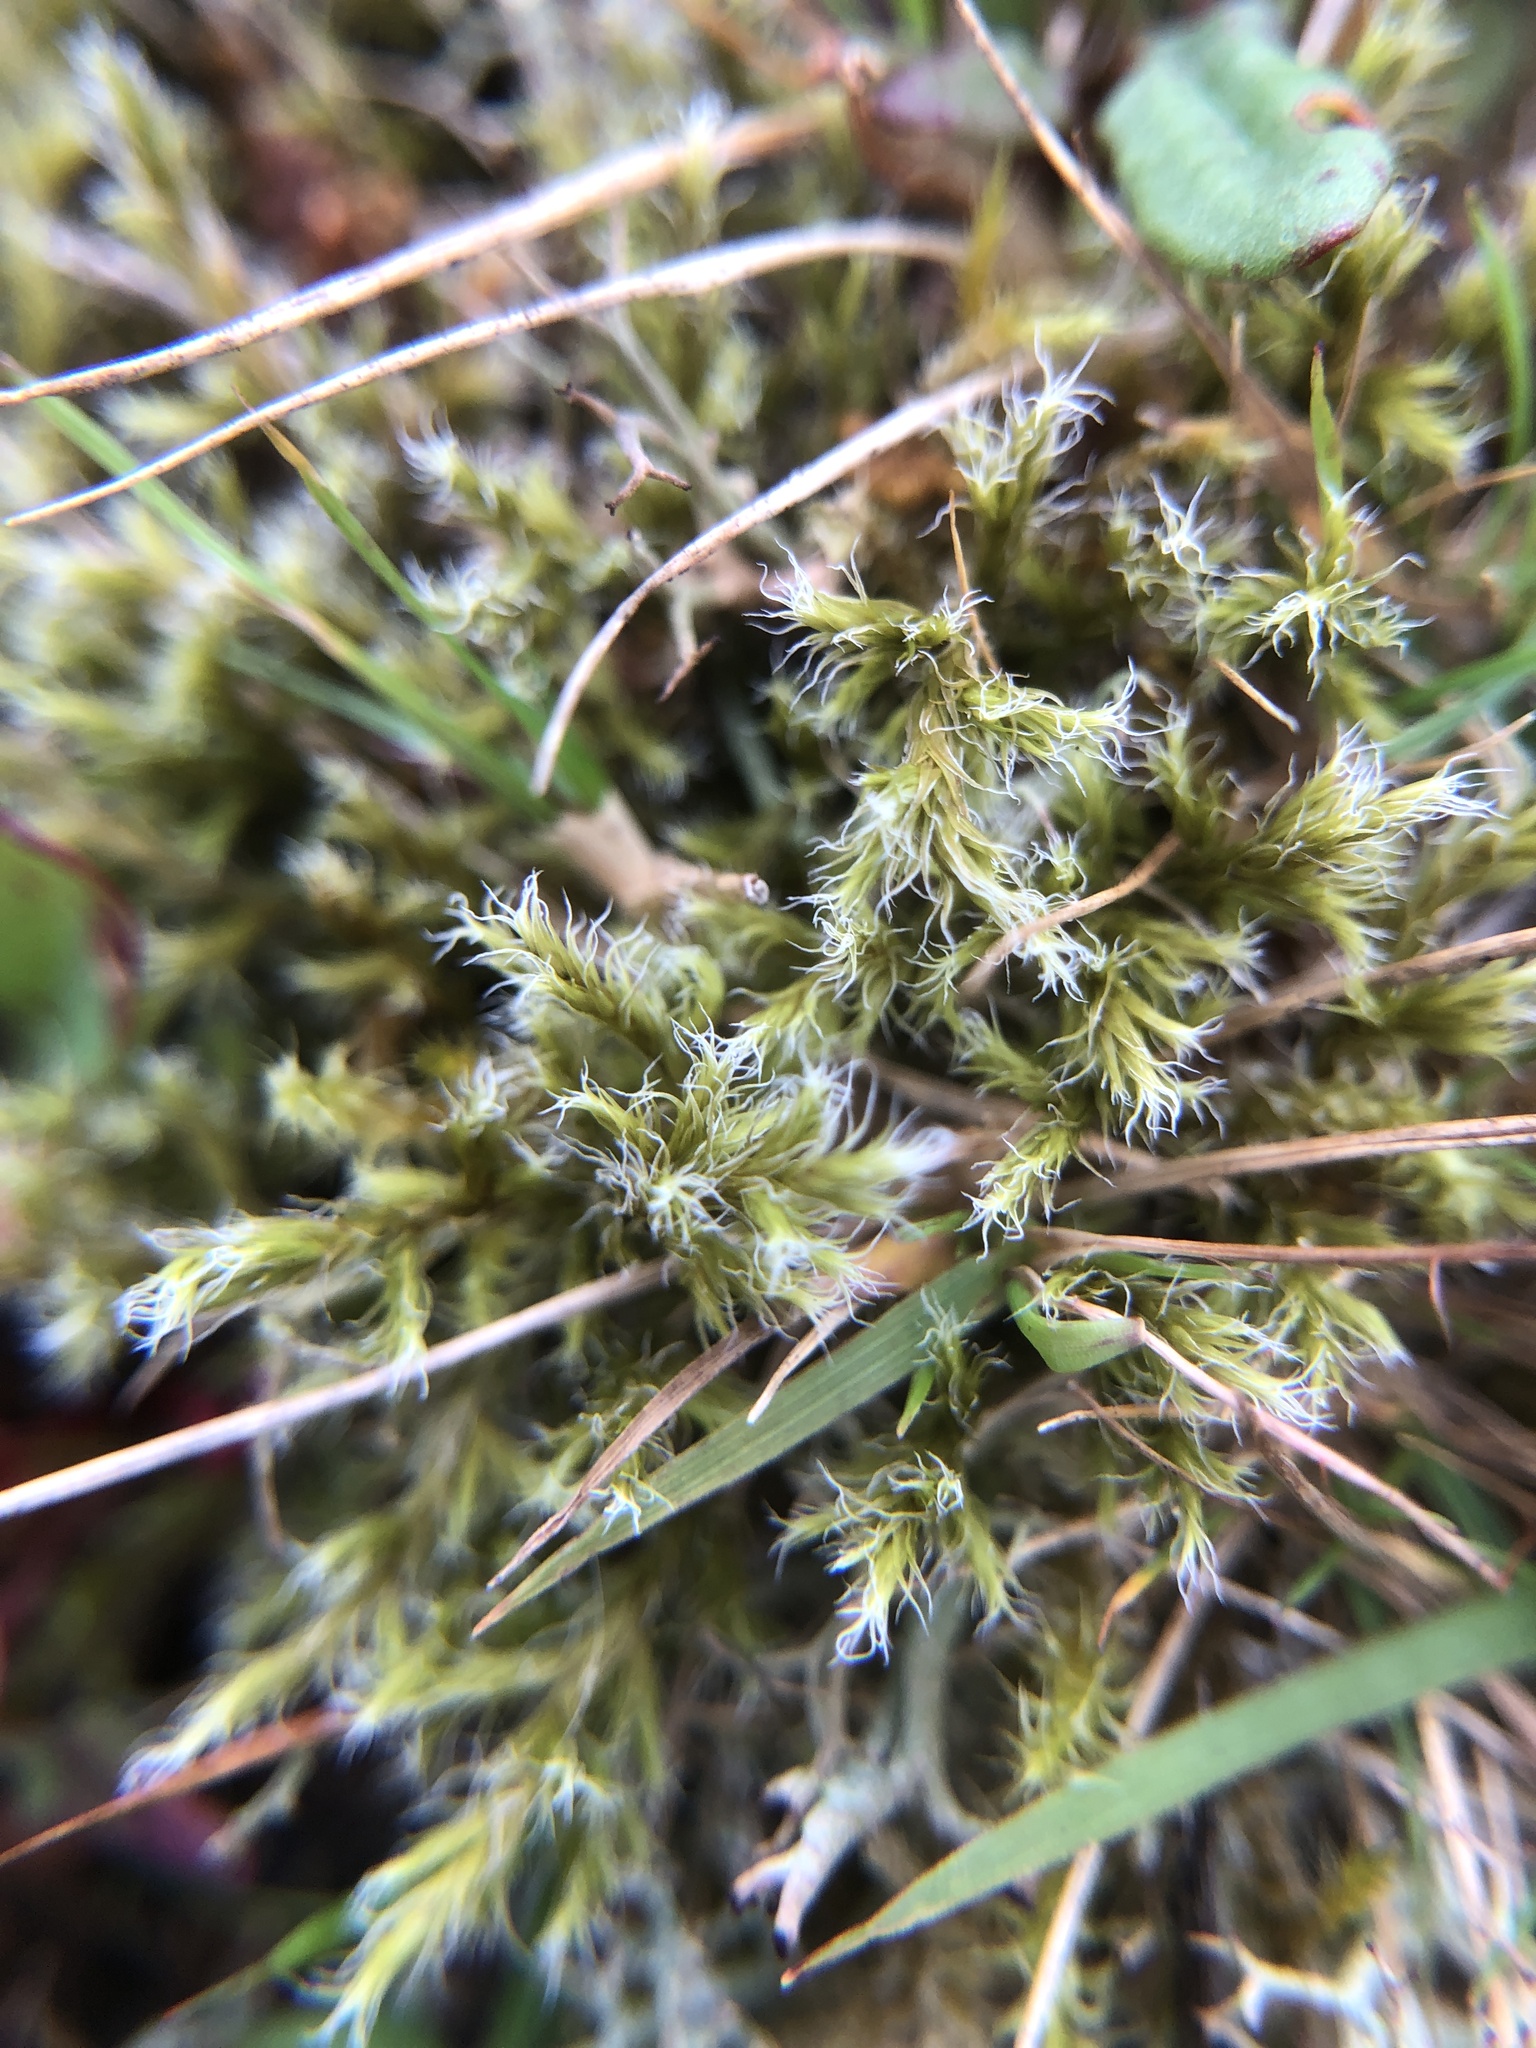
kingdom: Plantae
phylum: Bryophyta
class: Bryopsida
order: Grimmiales
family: Grimmiaceae
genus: Racomitrium
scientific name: Racomitrium lanuginosum
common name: Hoary rock moss
